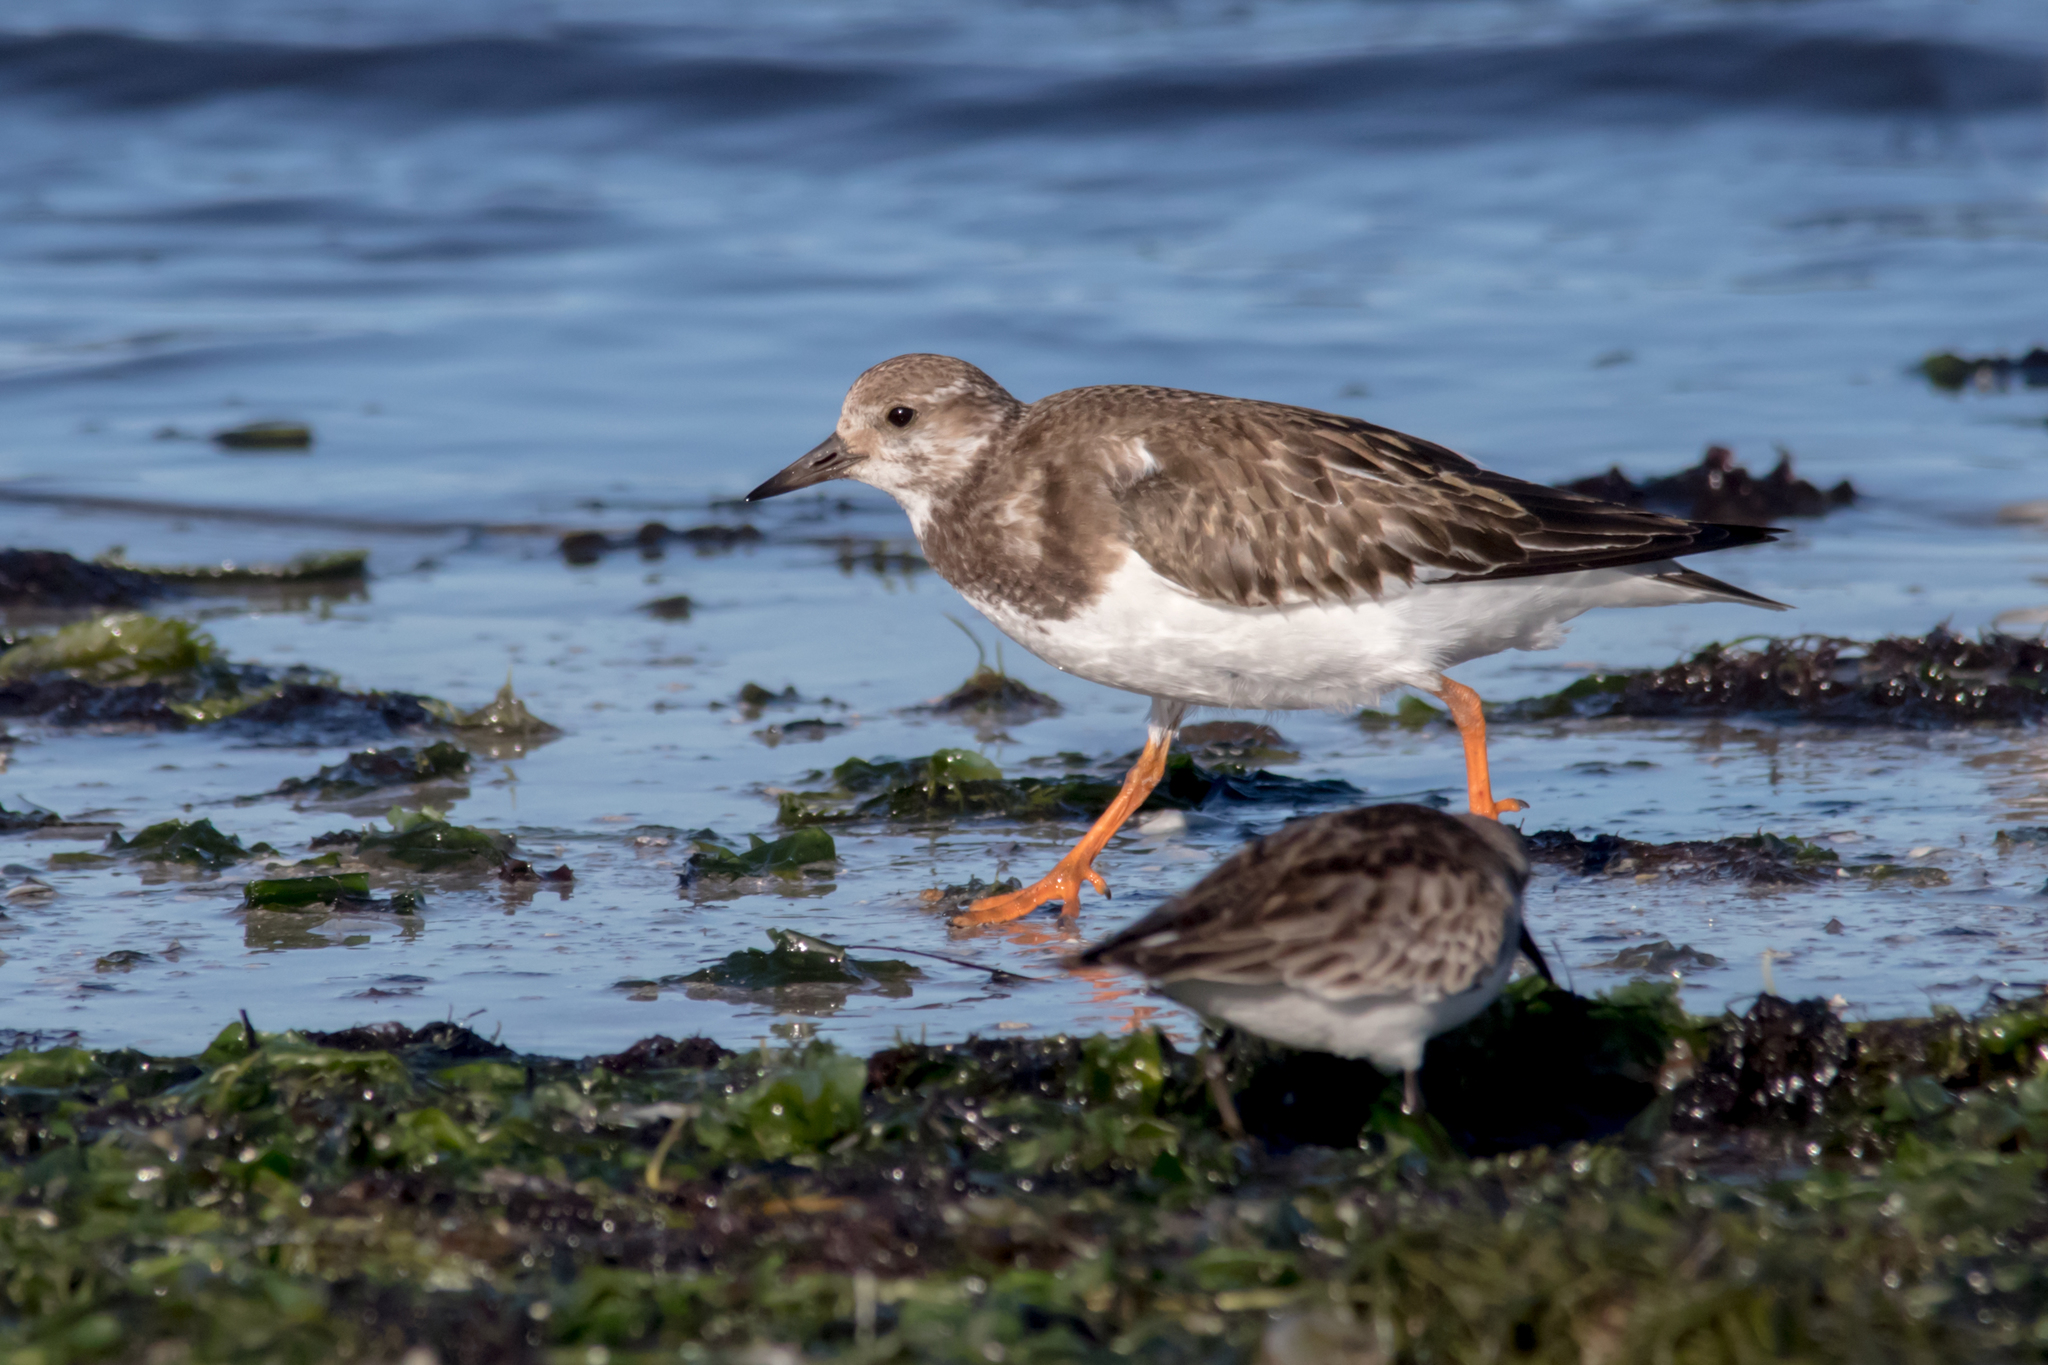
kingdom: Animalia
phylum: Chordata
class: Aves
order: Charadriiformes
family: Scolopacidae
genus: Arenaria
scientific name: Arenaria interpres
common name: Ruddy turnstone
